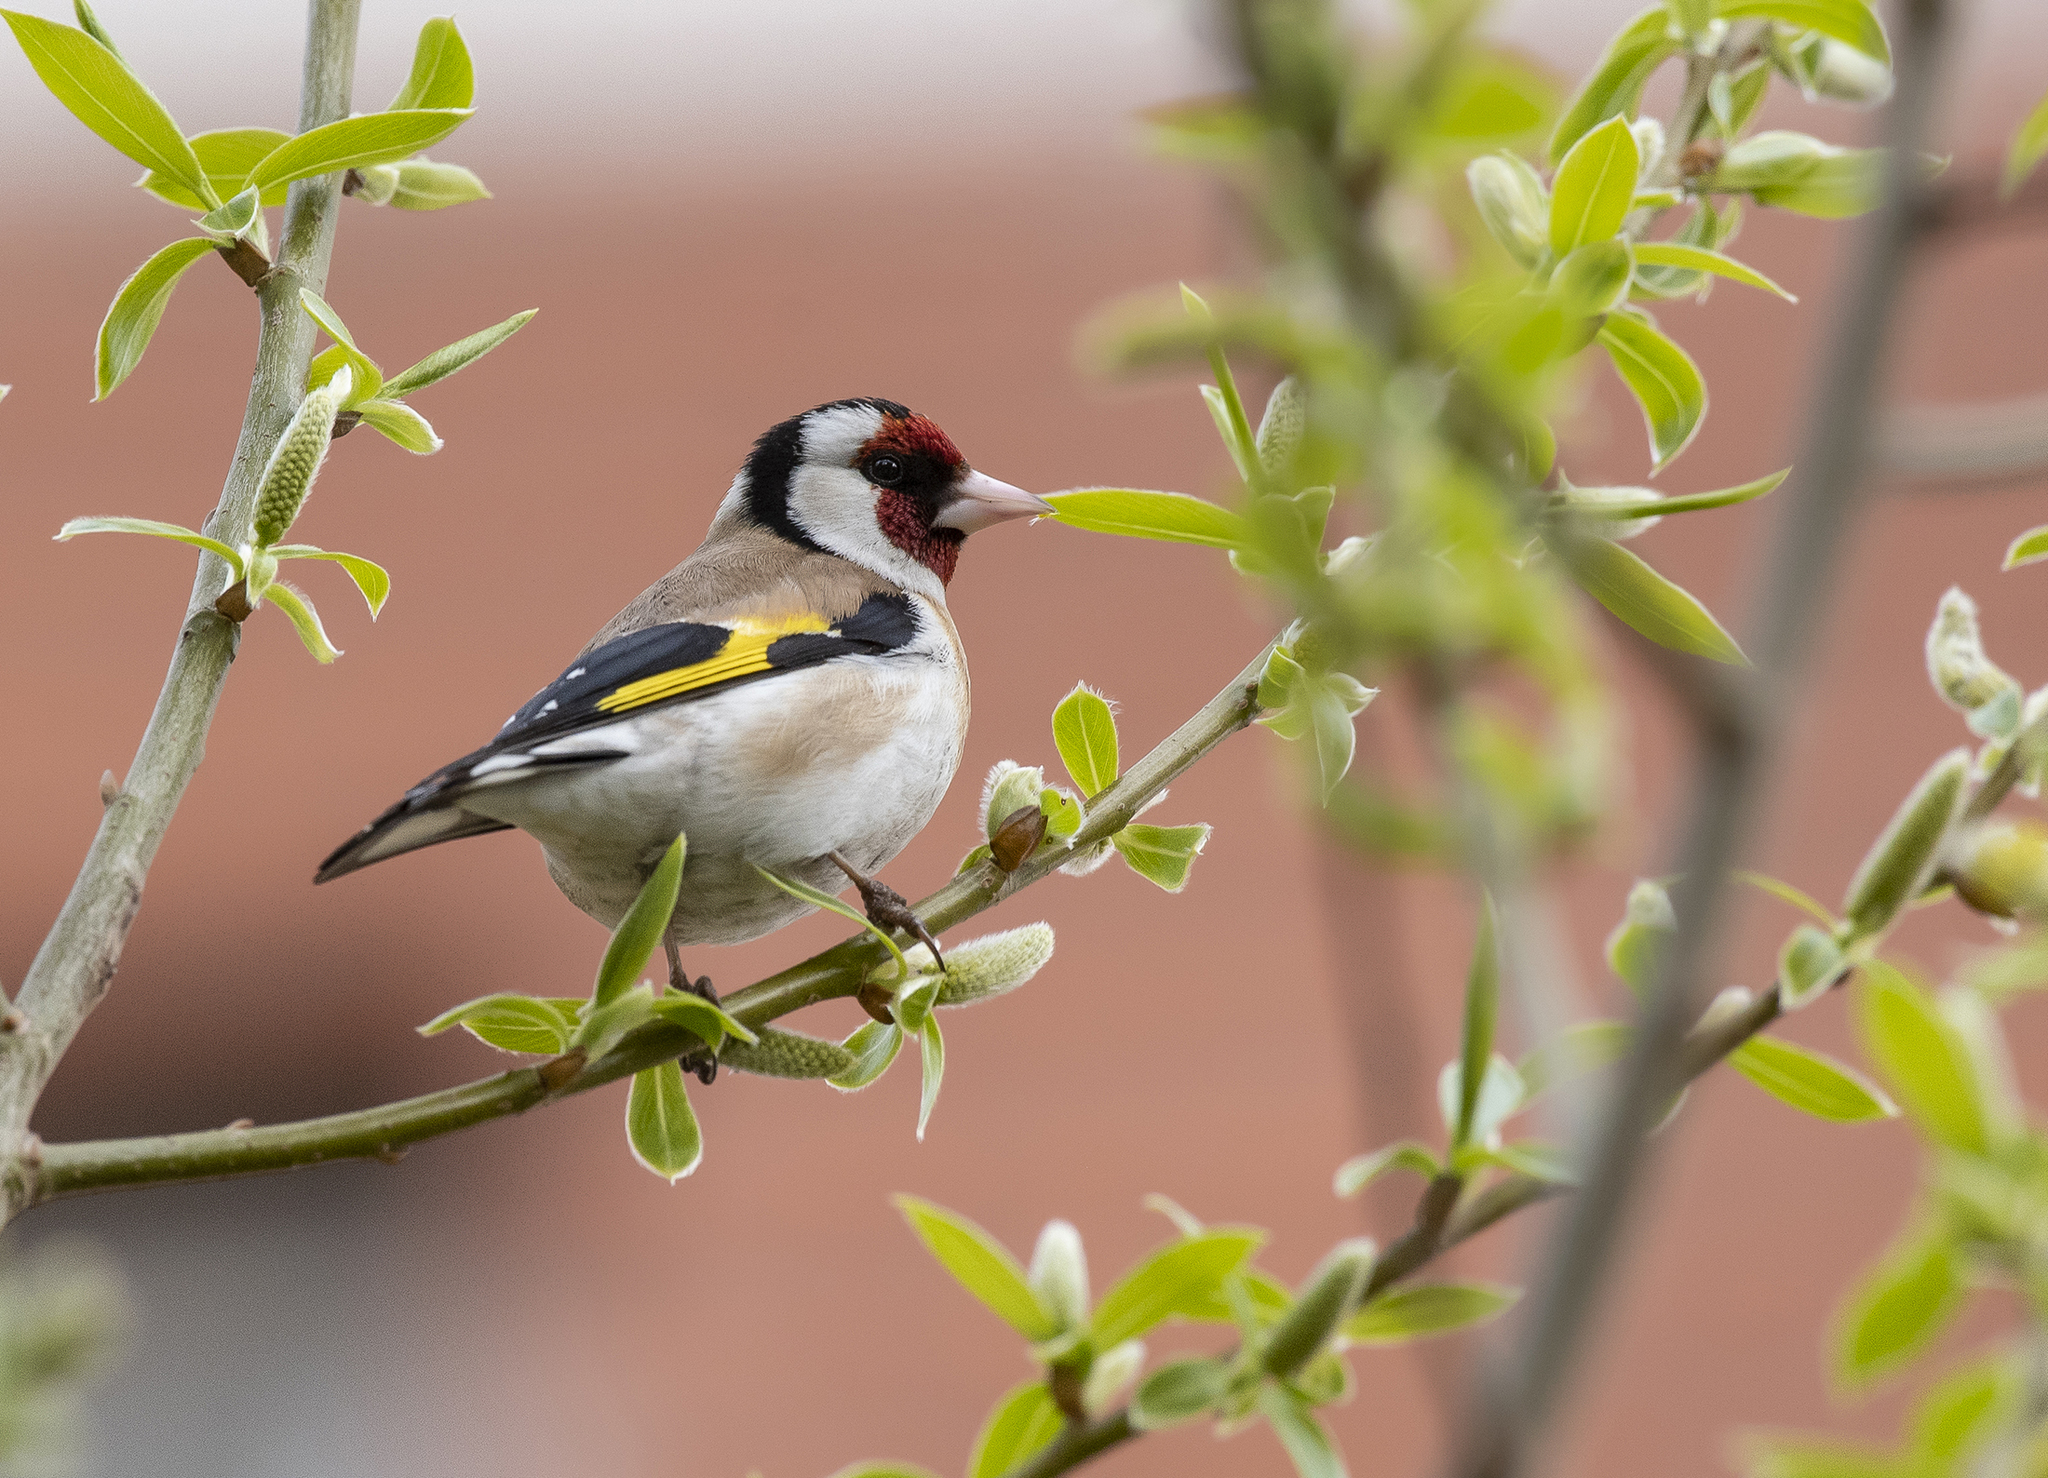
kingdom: Animalia
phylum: Chordata
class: Aves
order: Passeriformes
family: Fringillidae
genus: Carduelis
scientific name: Carduelis carduelis
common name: European goldfinch
